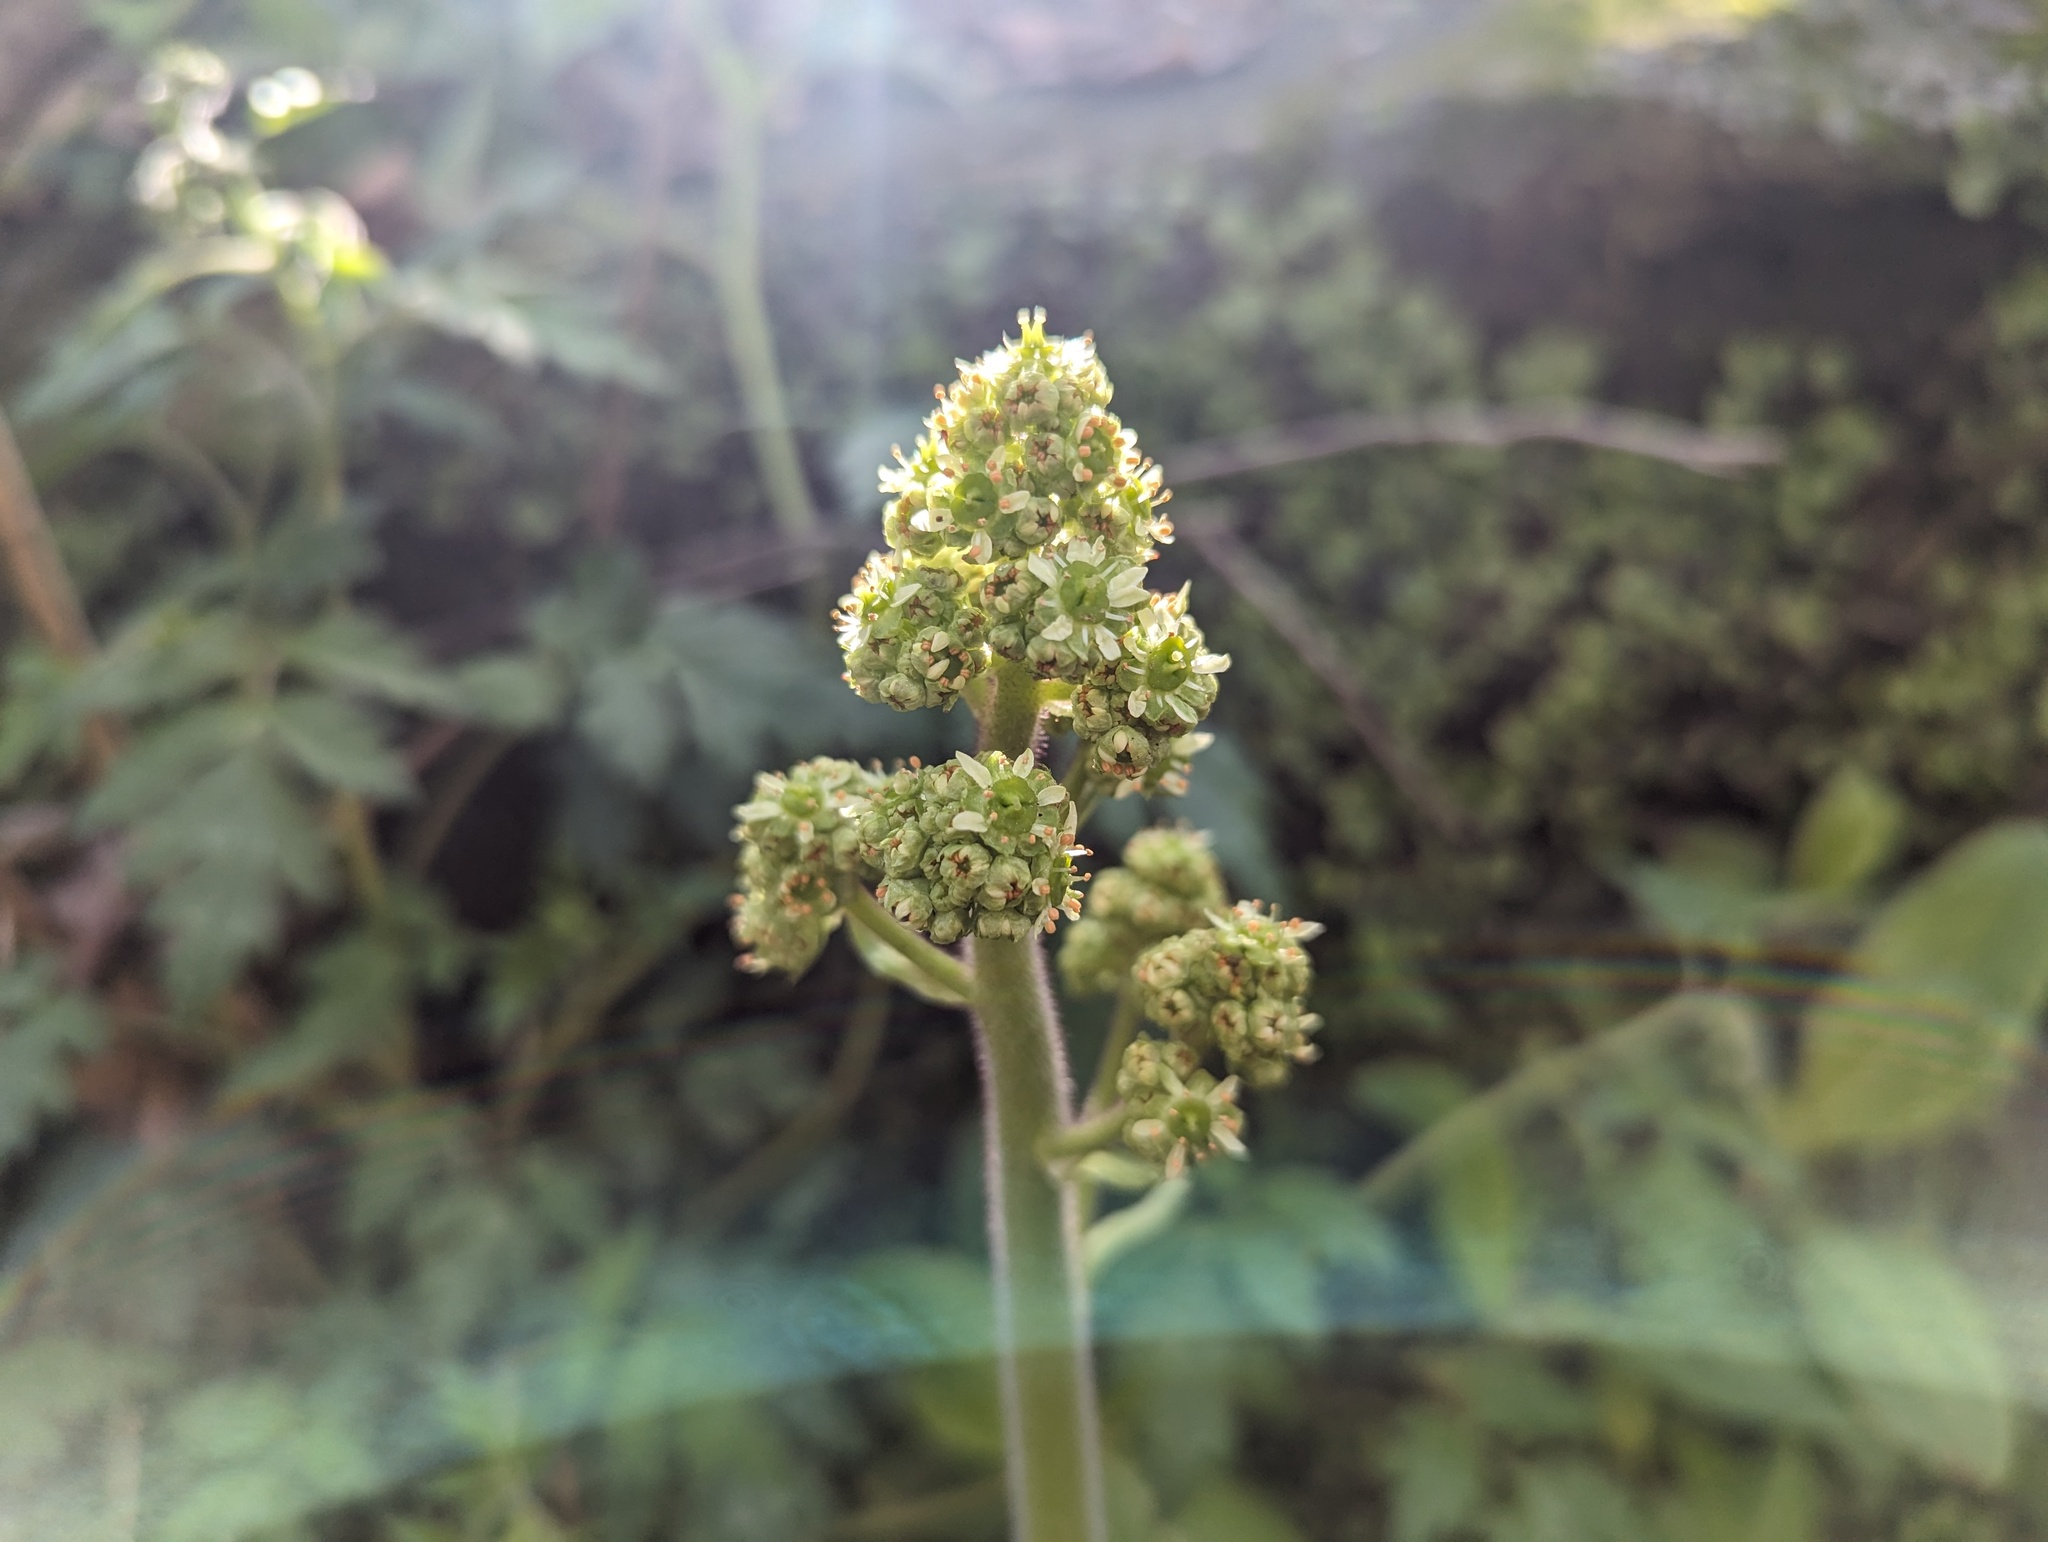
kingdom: Plantae
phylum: Tracheophyta
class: Magnoliopsida
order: Saxifragales
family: Saxifragaceae
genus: Micranthes
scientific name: Micranthes pensylvanica
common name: Marsh saxifrage
